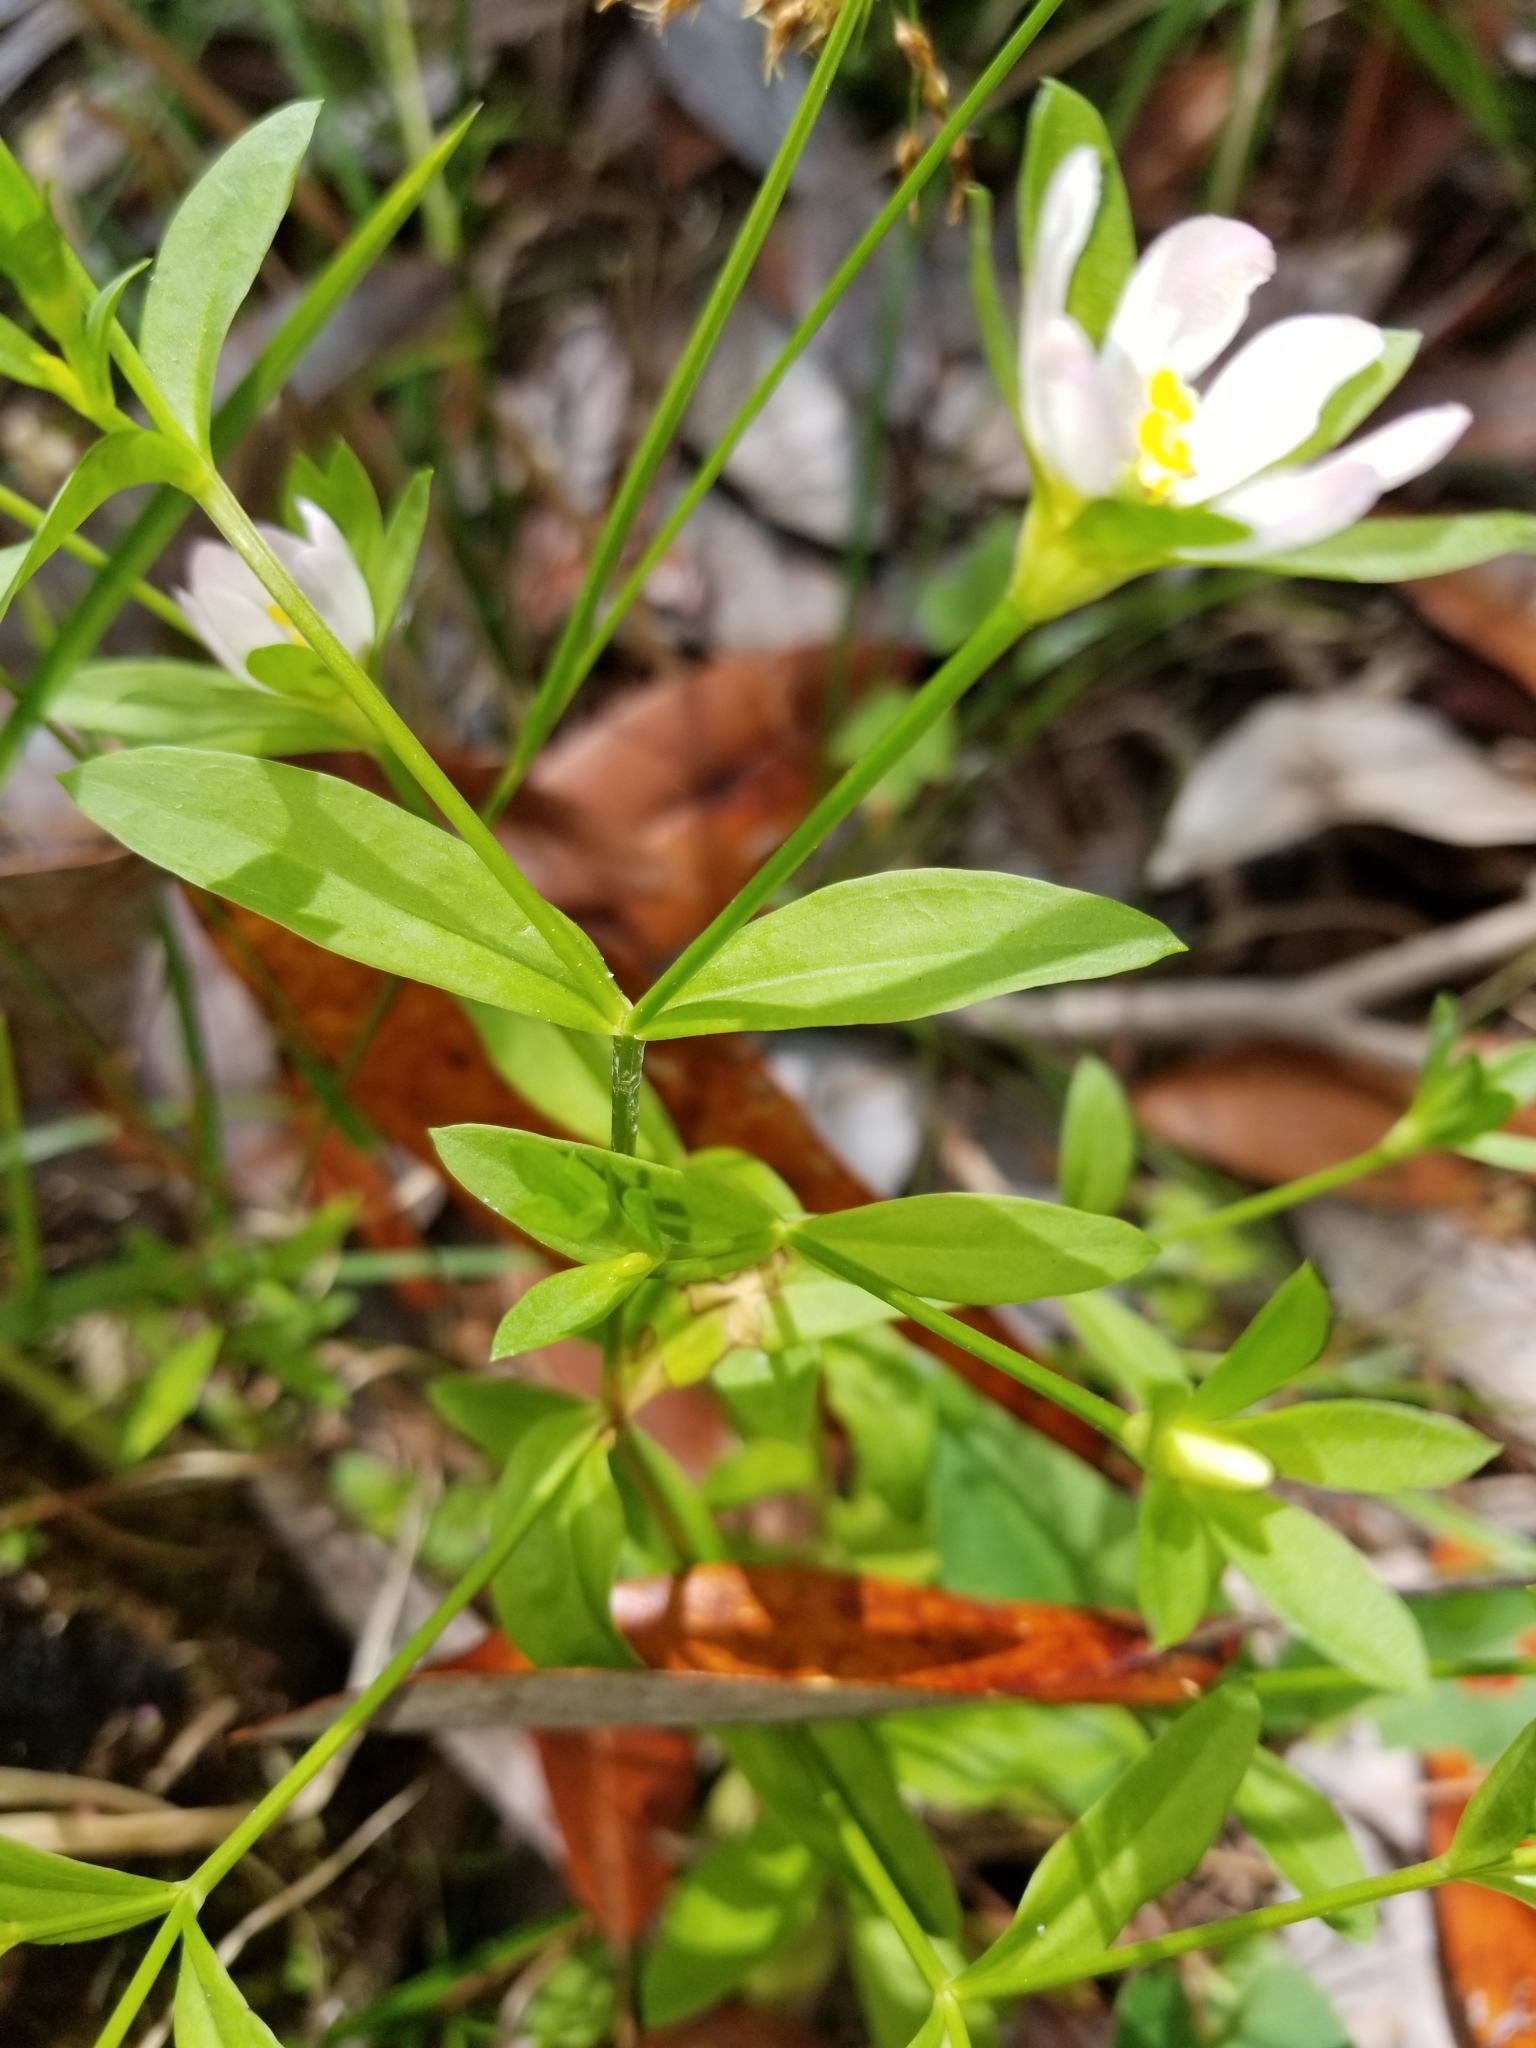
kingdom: Plantae
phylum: Tracheophyta
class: Magnoliopsida
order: Gentianales
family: Gentianaceae
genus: Sabatia
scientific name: Sabatia calycina
